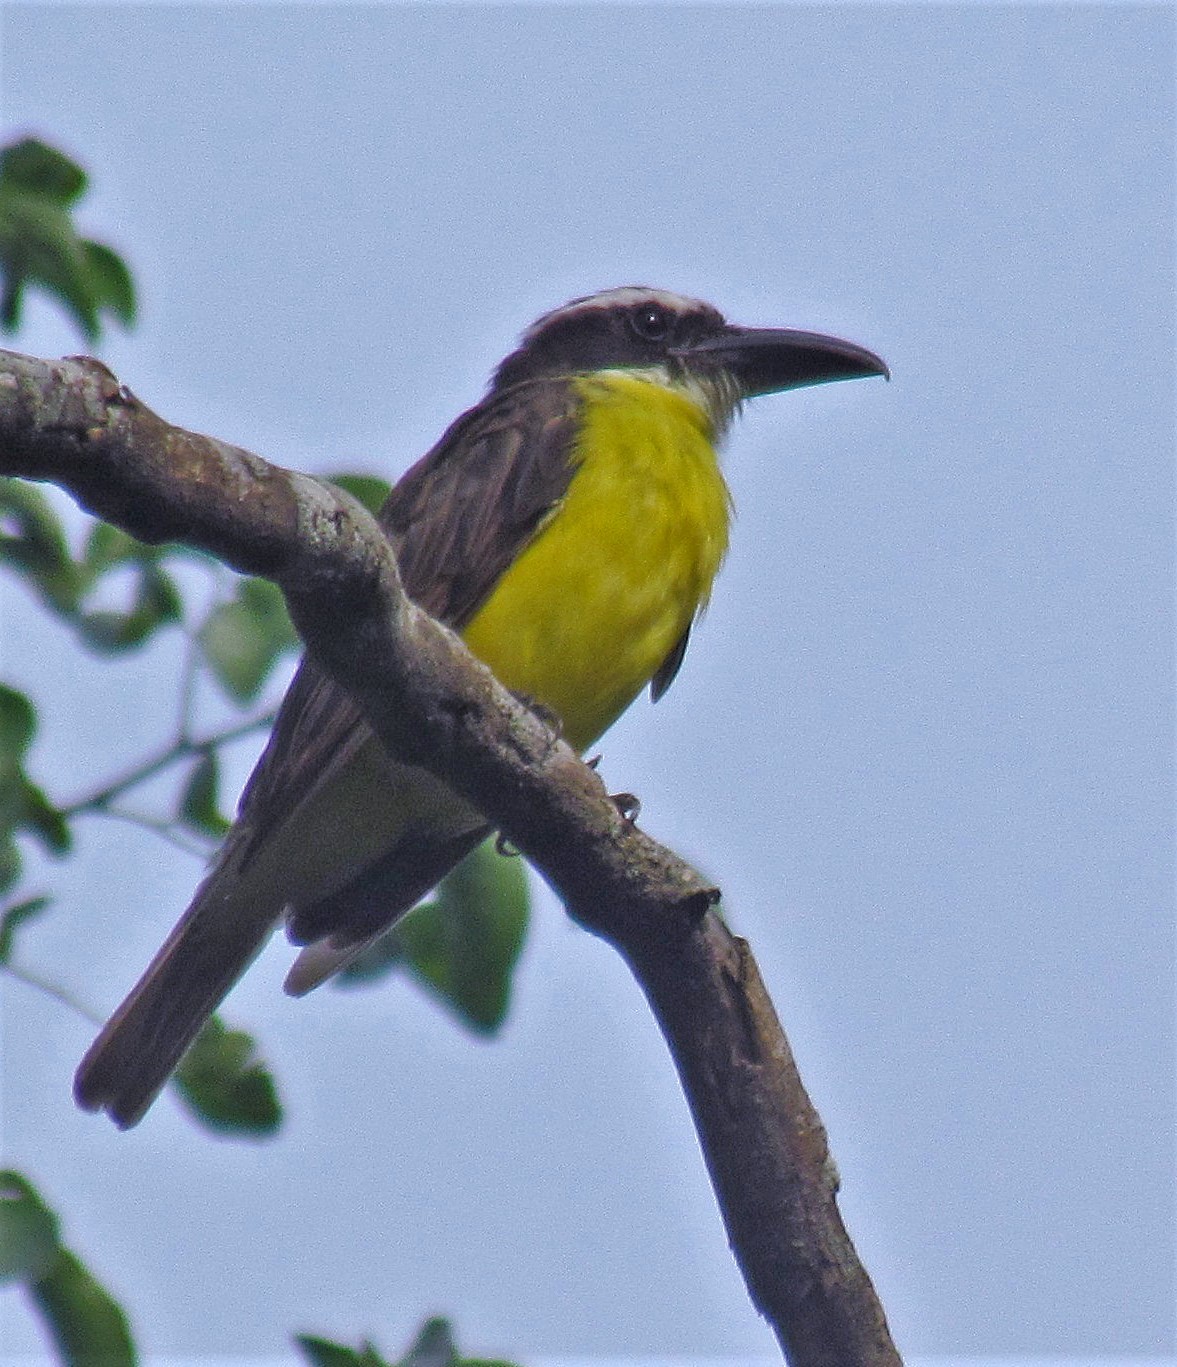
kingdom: Animalia
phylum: Chordata
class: Aves
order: Passeriformes
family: Tyrannidae
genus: Megarynchus
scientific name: Megarynchus pitangua
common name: Boat-billed flycatcher
